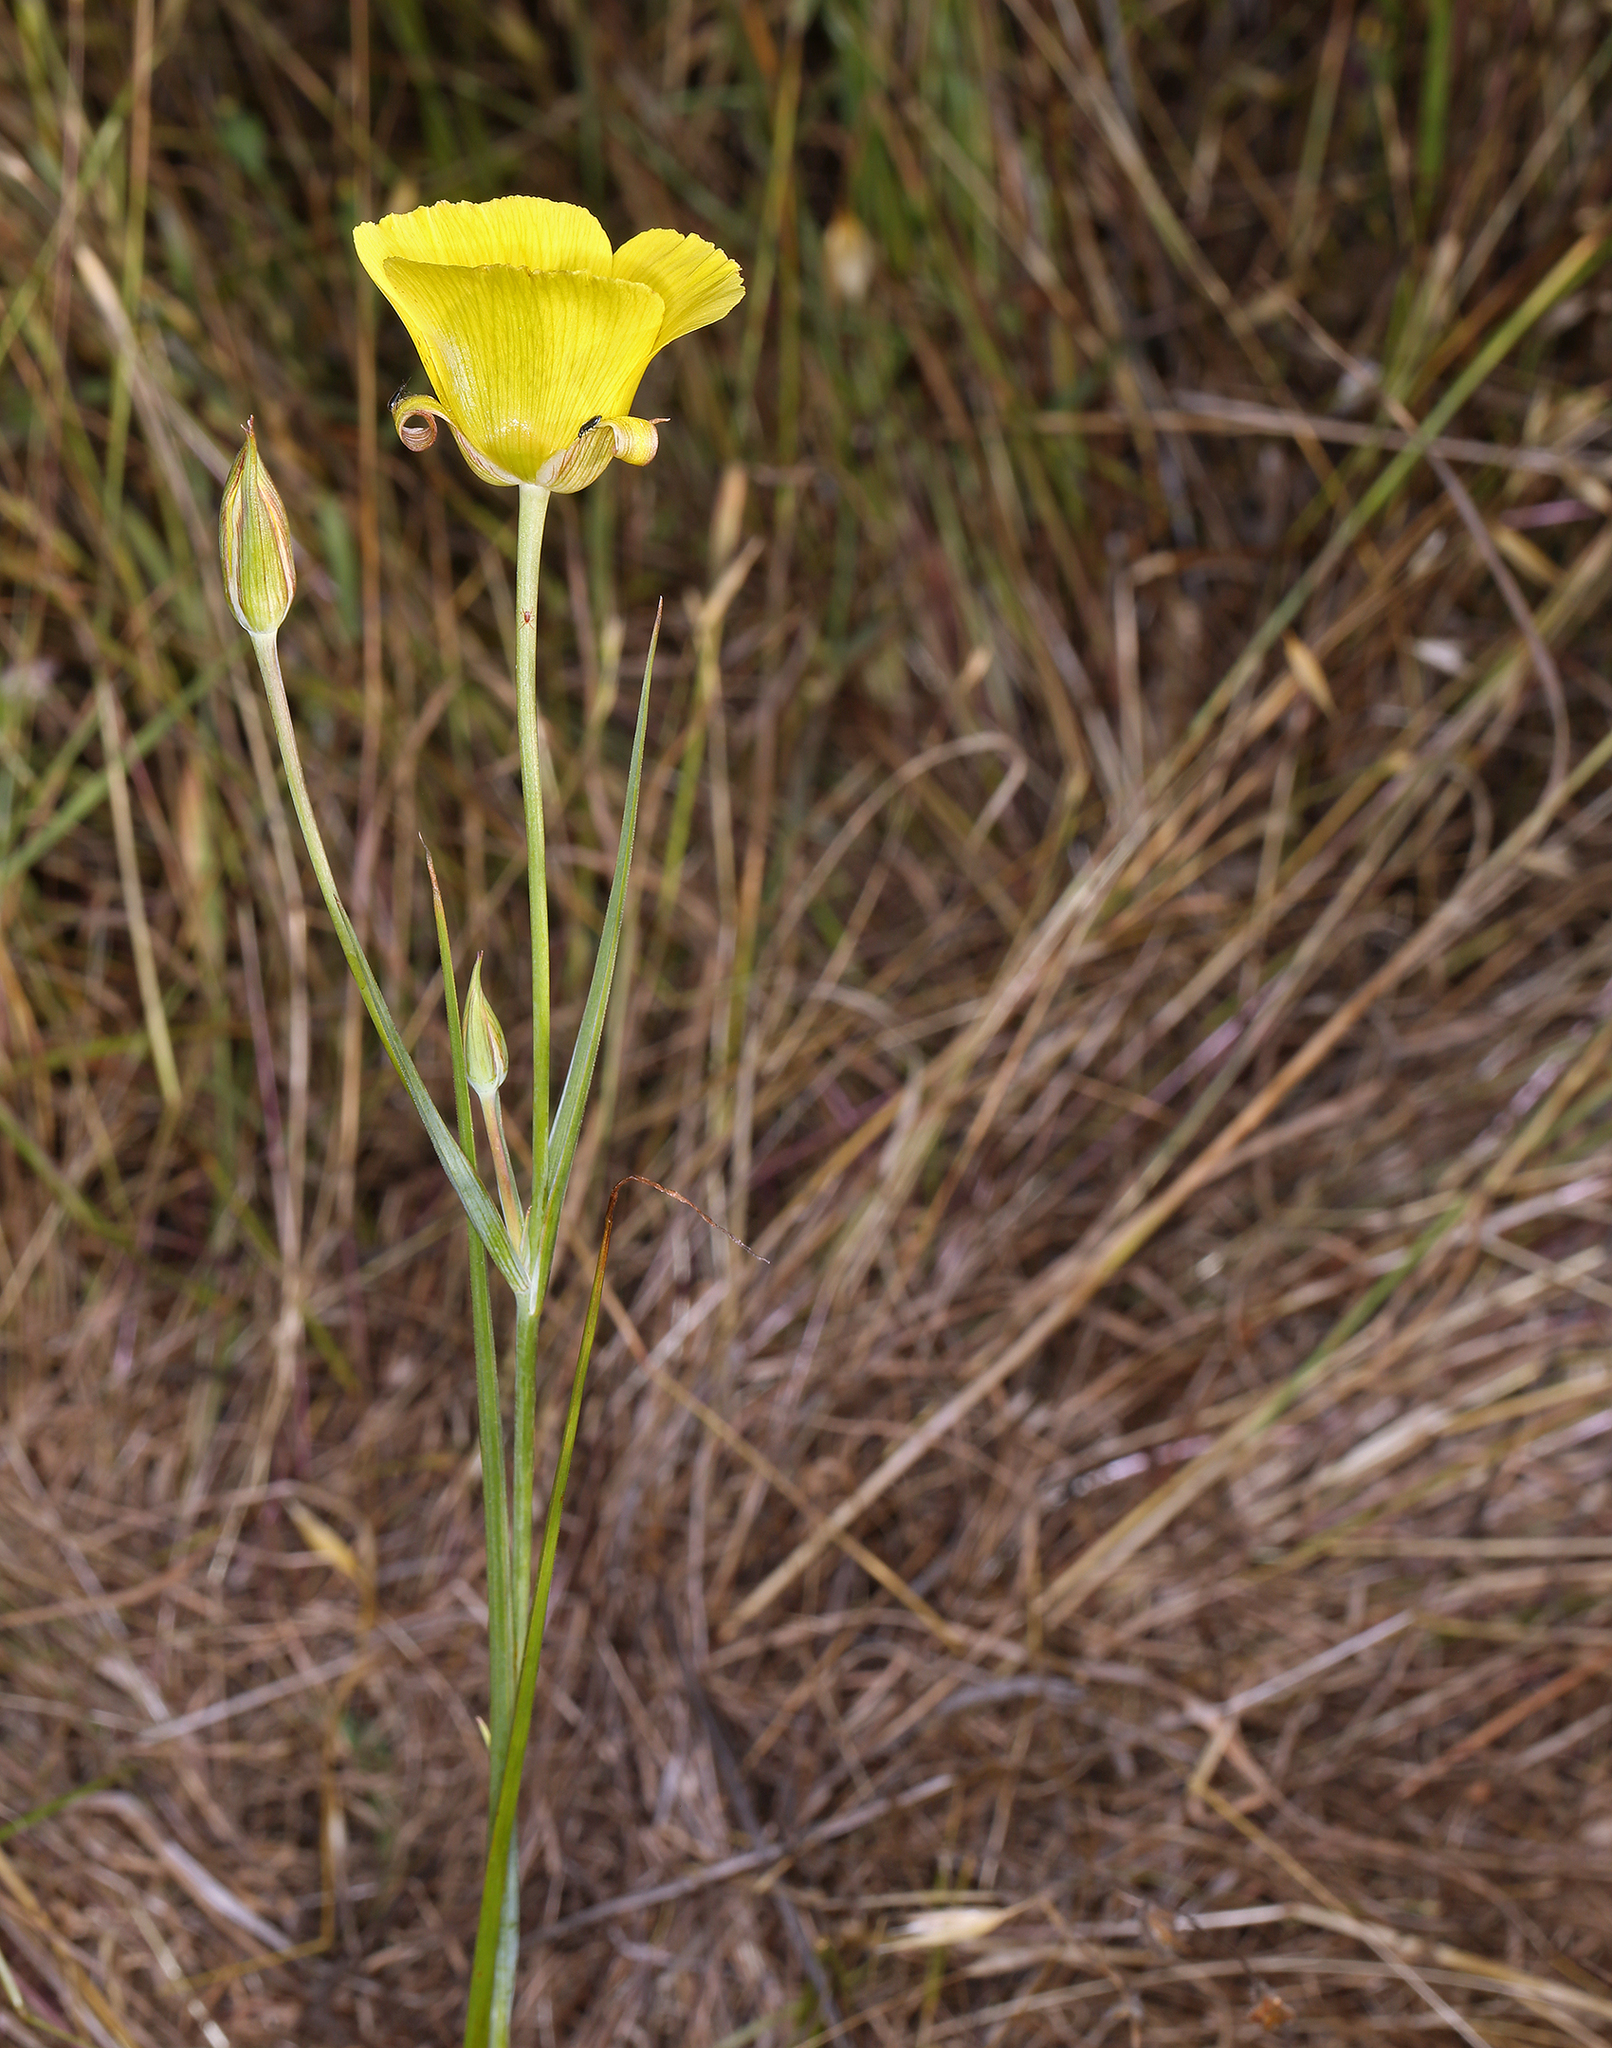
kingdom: Plantae
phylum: Tracheophyta
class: Liliopsida
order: Liliales
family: Liliaceae
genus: Calochortus
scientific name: Calochortus luteus
